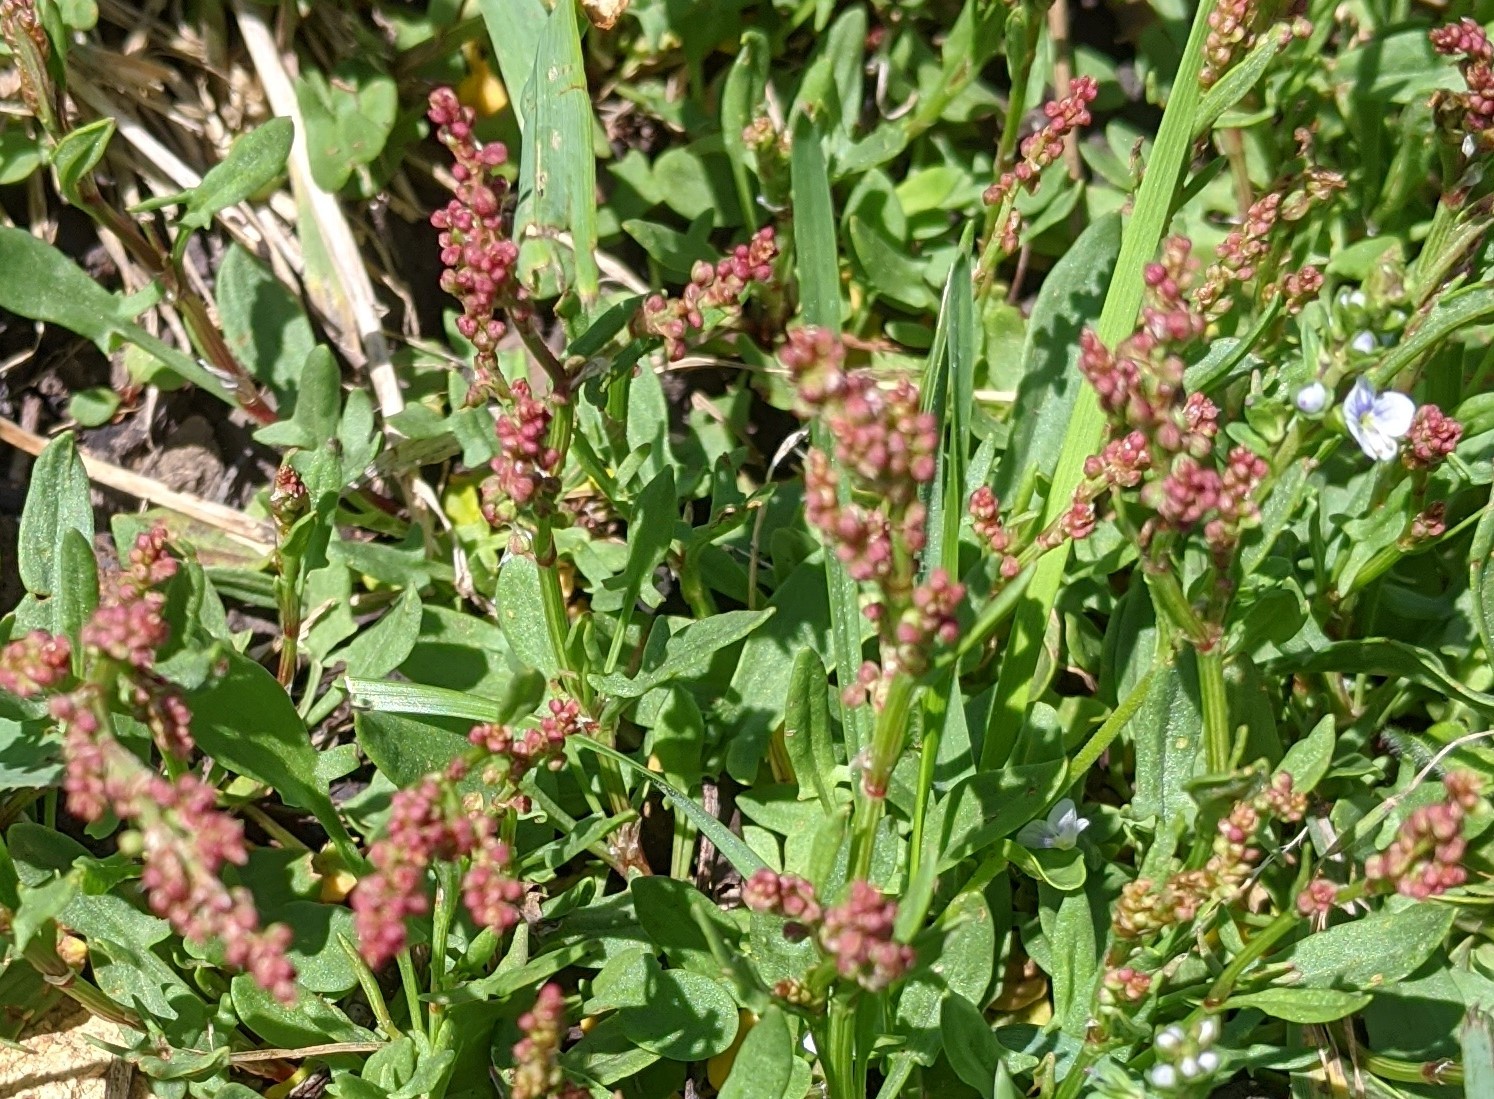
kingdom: Plantae
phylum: Tracheophyta
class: Magnoliopsida
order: Caryophyllales
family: Polygonaceae
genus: Rumex
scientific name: Rumex acetosella
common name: Common sheep sorrel
